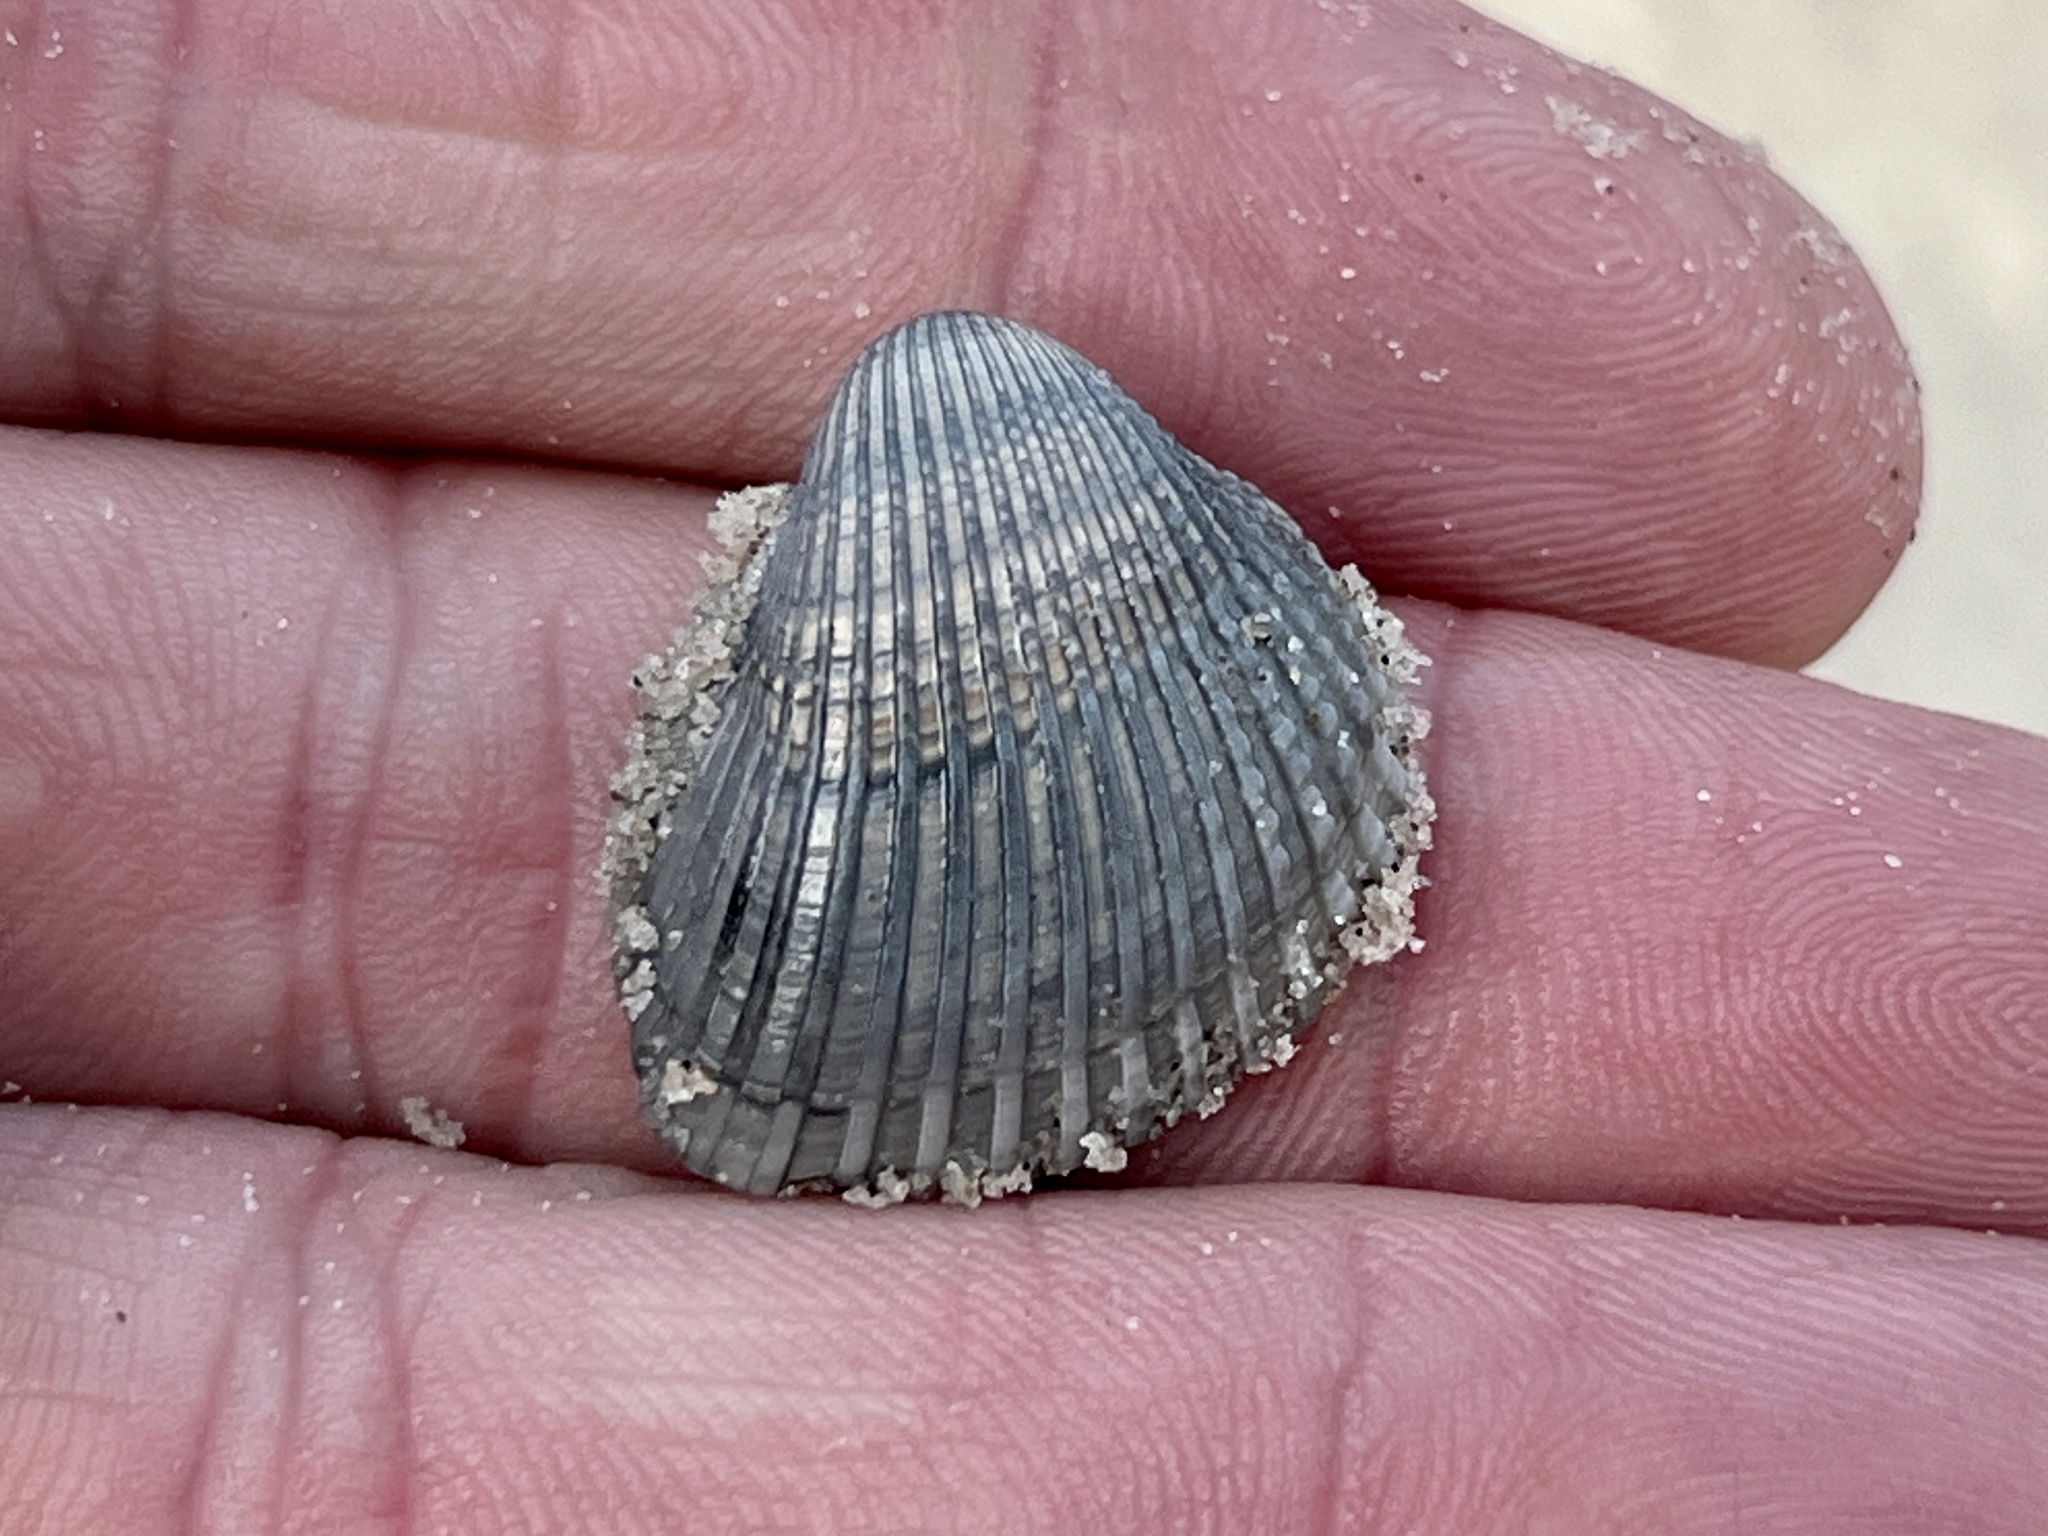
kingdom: Animalia
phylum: Mollusca
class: Bivalvia
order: Arcida
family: Arcidae
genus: Anadara
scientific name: Anadara chemnitzii
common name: Chemnitz's triangular ark
